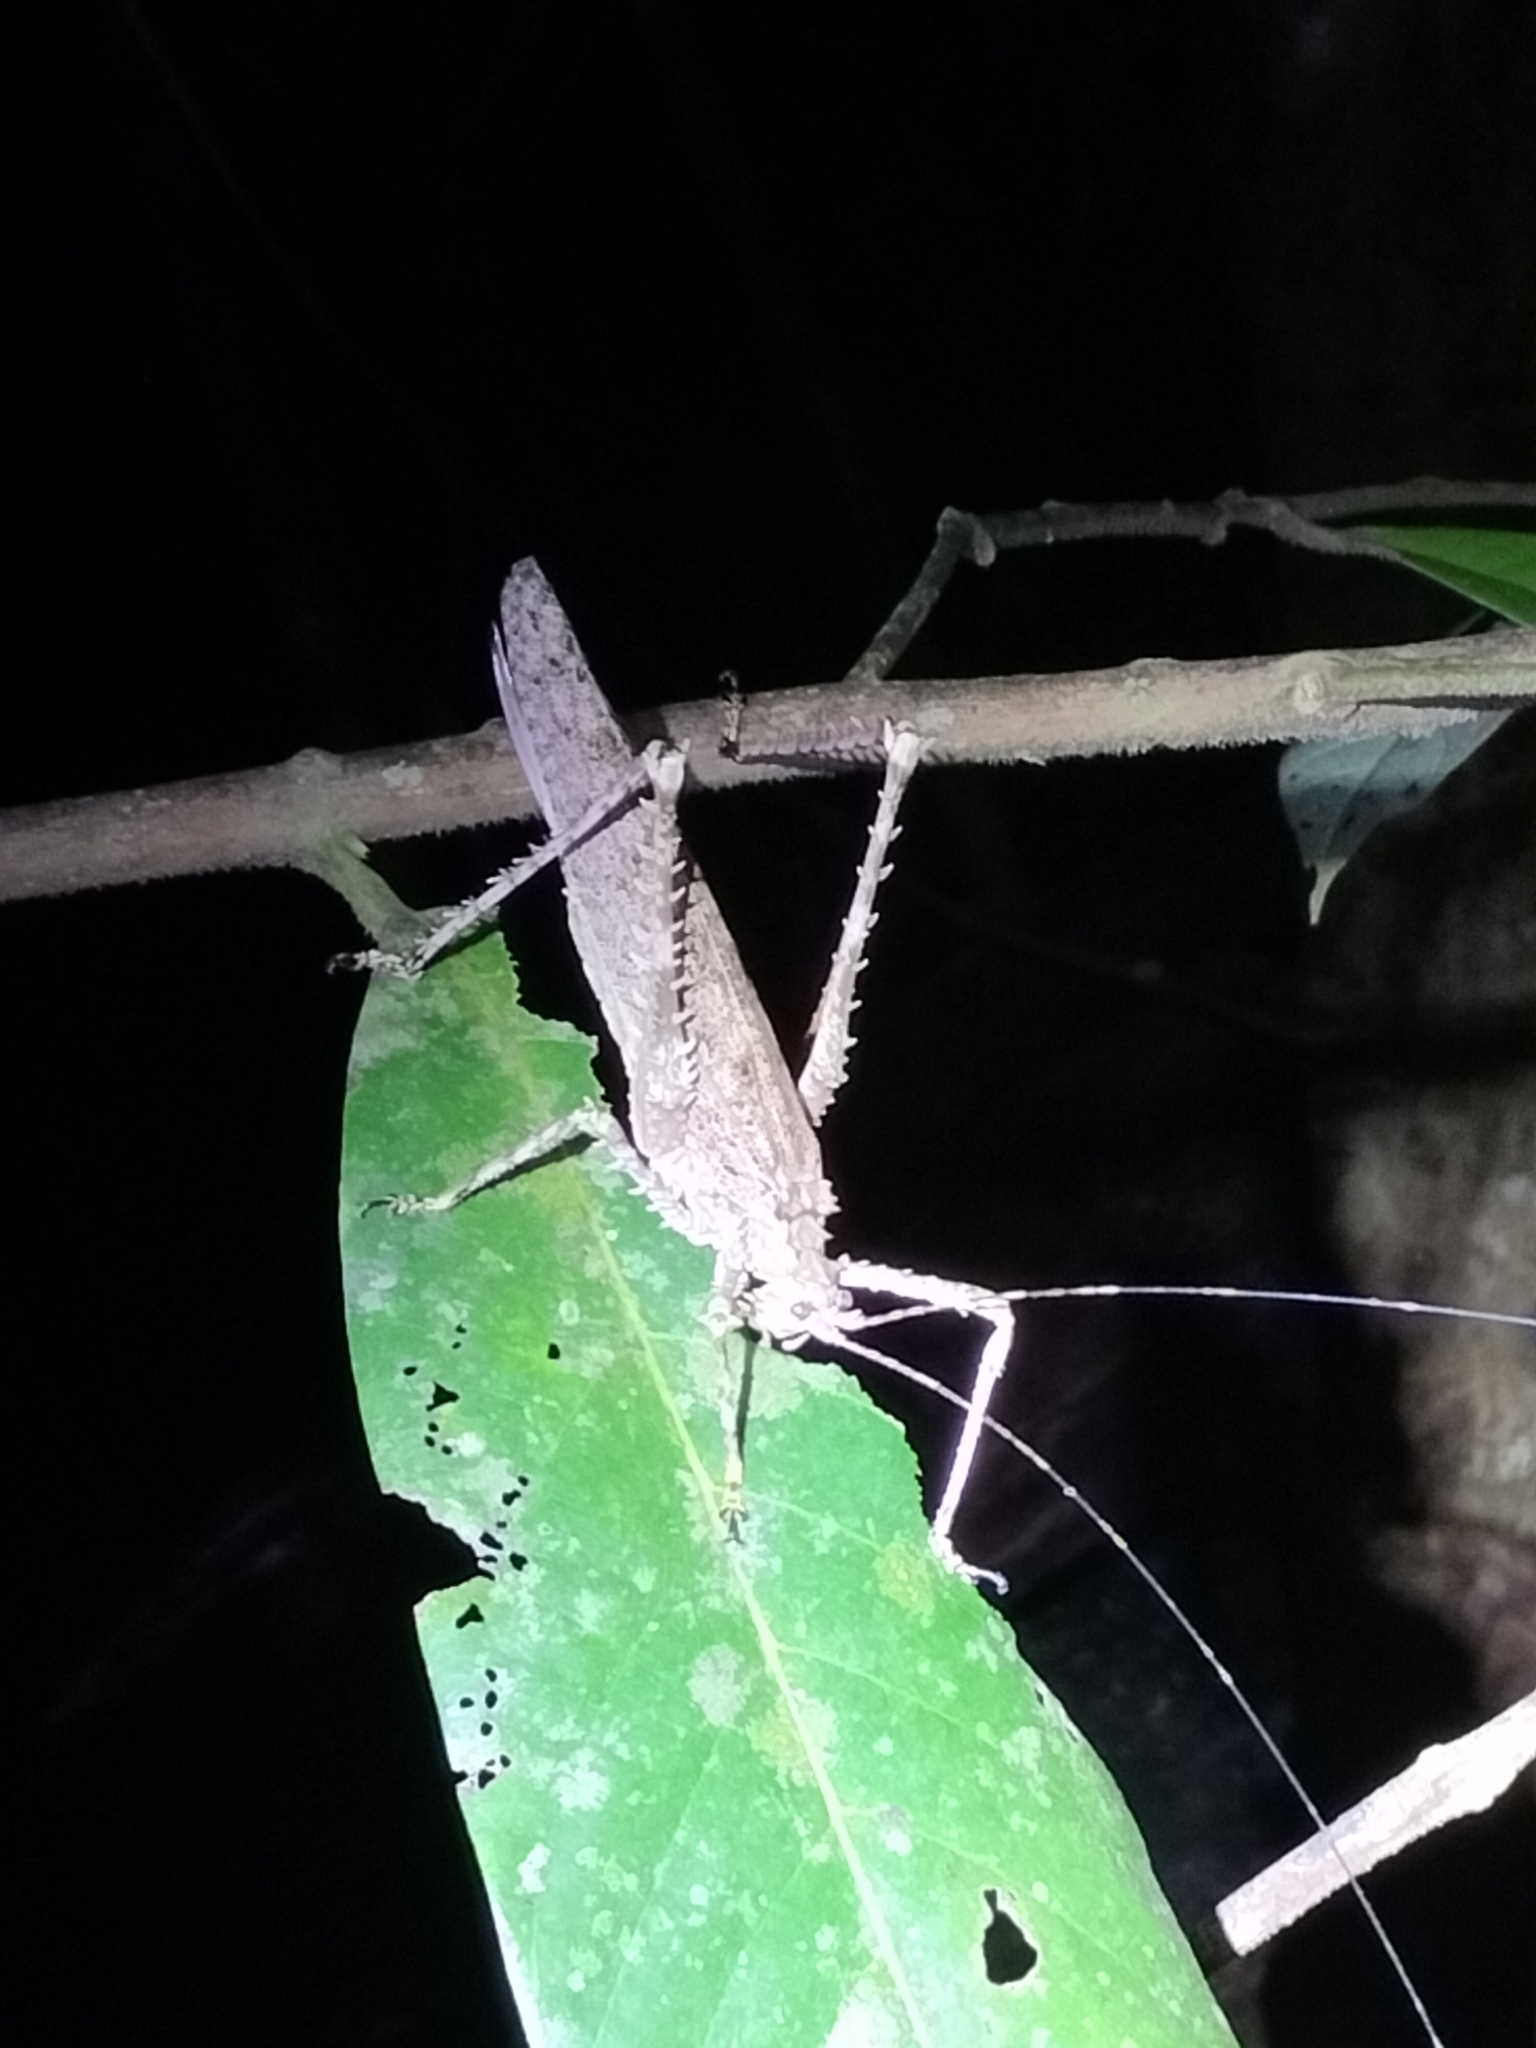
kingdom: Animalia
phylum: Arthropoda
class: Insecta
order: Orthoptera
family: Tettigoniidae
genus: Phricta
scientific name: Phricta spinosa
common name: Giant spiny forest katydid
